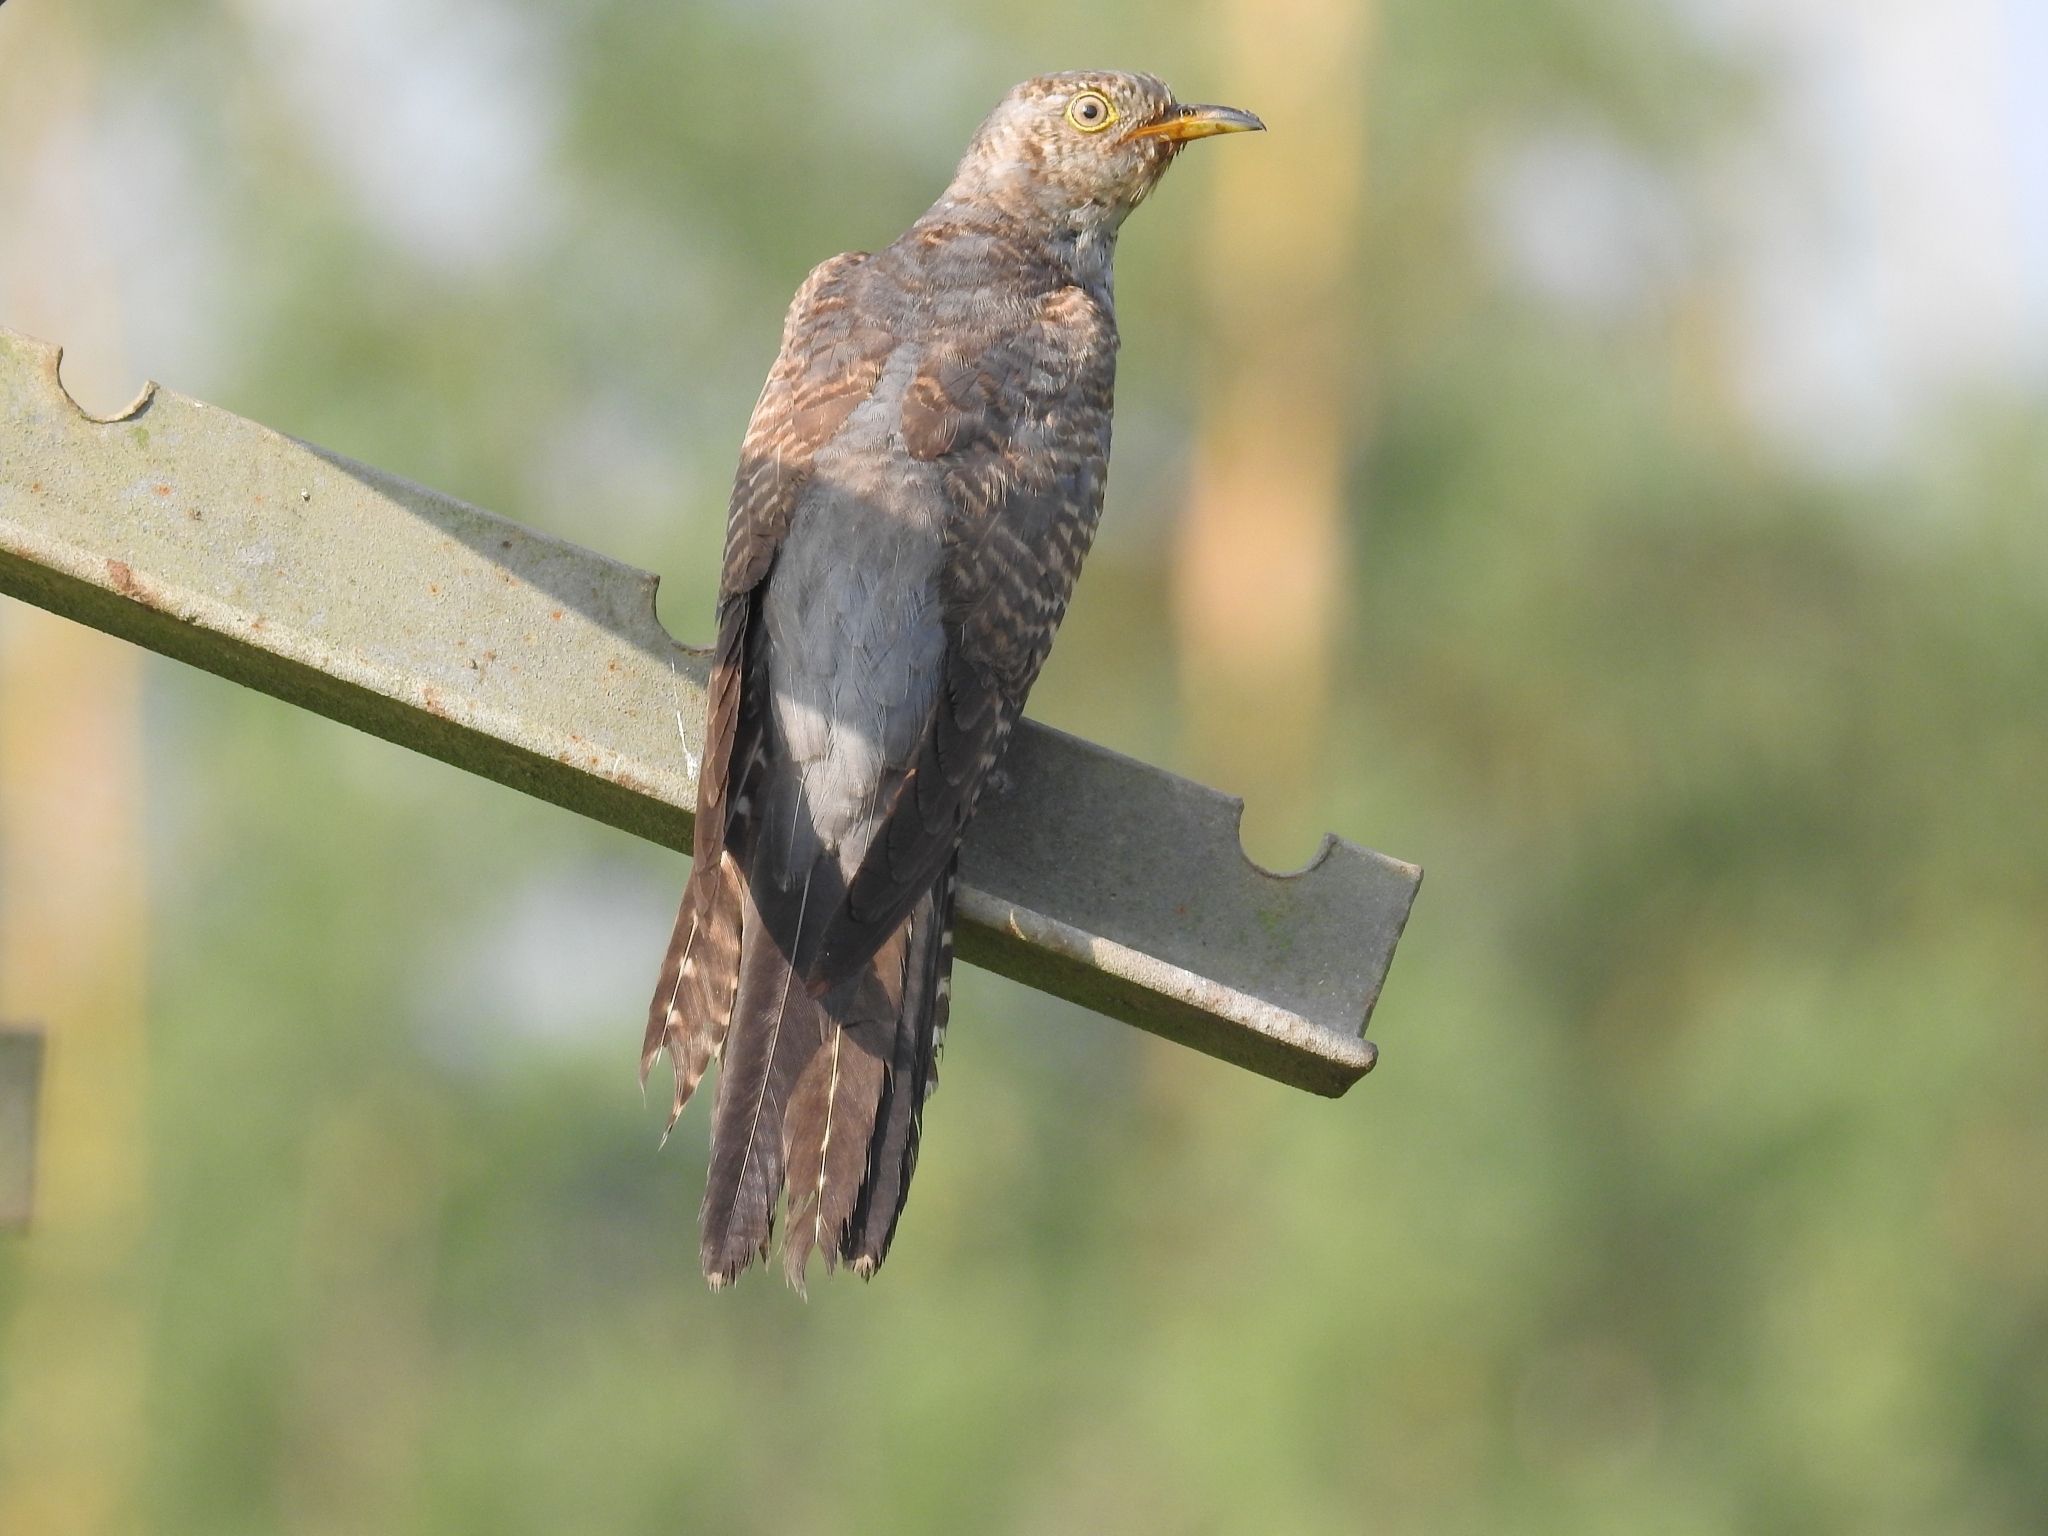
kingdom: Animalia
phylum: Chordata
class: Aves
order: Cuculiformes
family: Cuculidae
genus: Cuculus
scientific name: Cuculus canorus
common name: Common cuckoo
